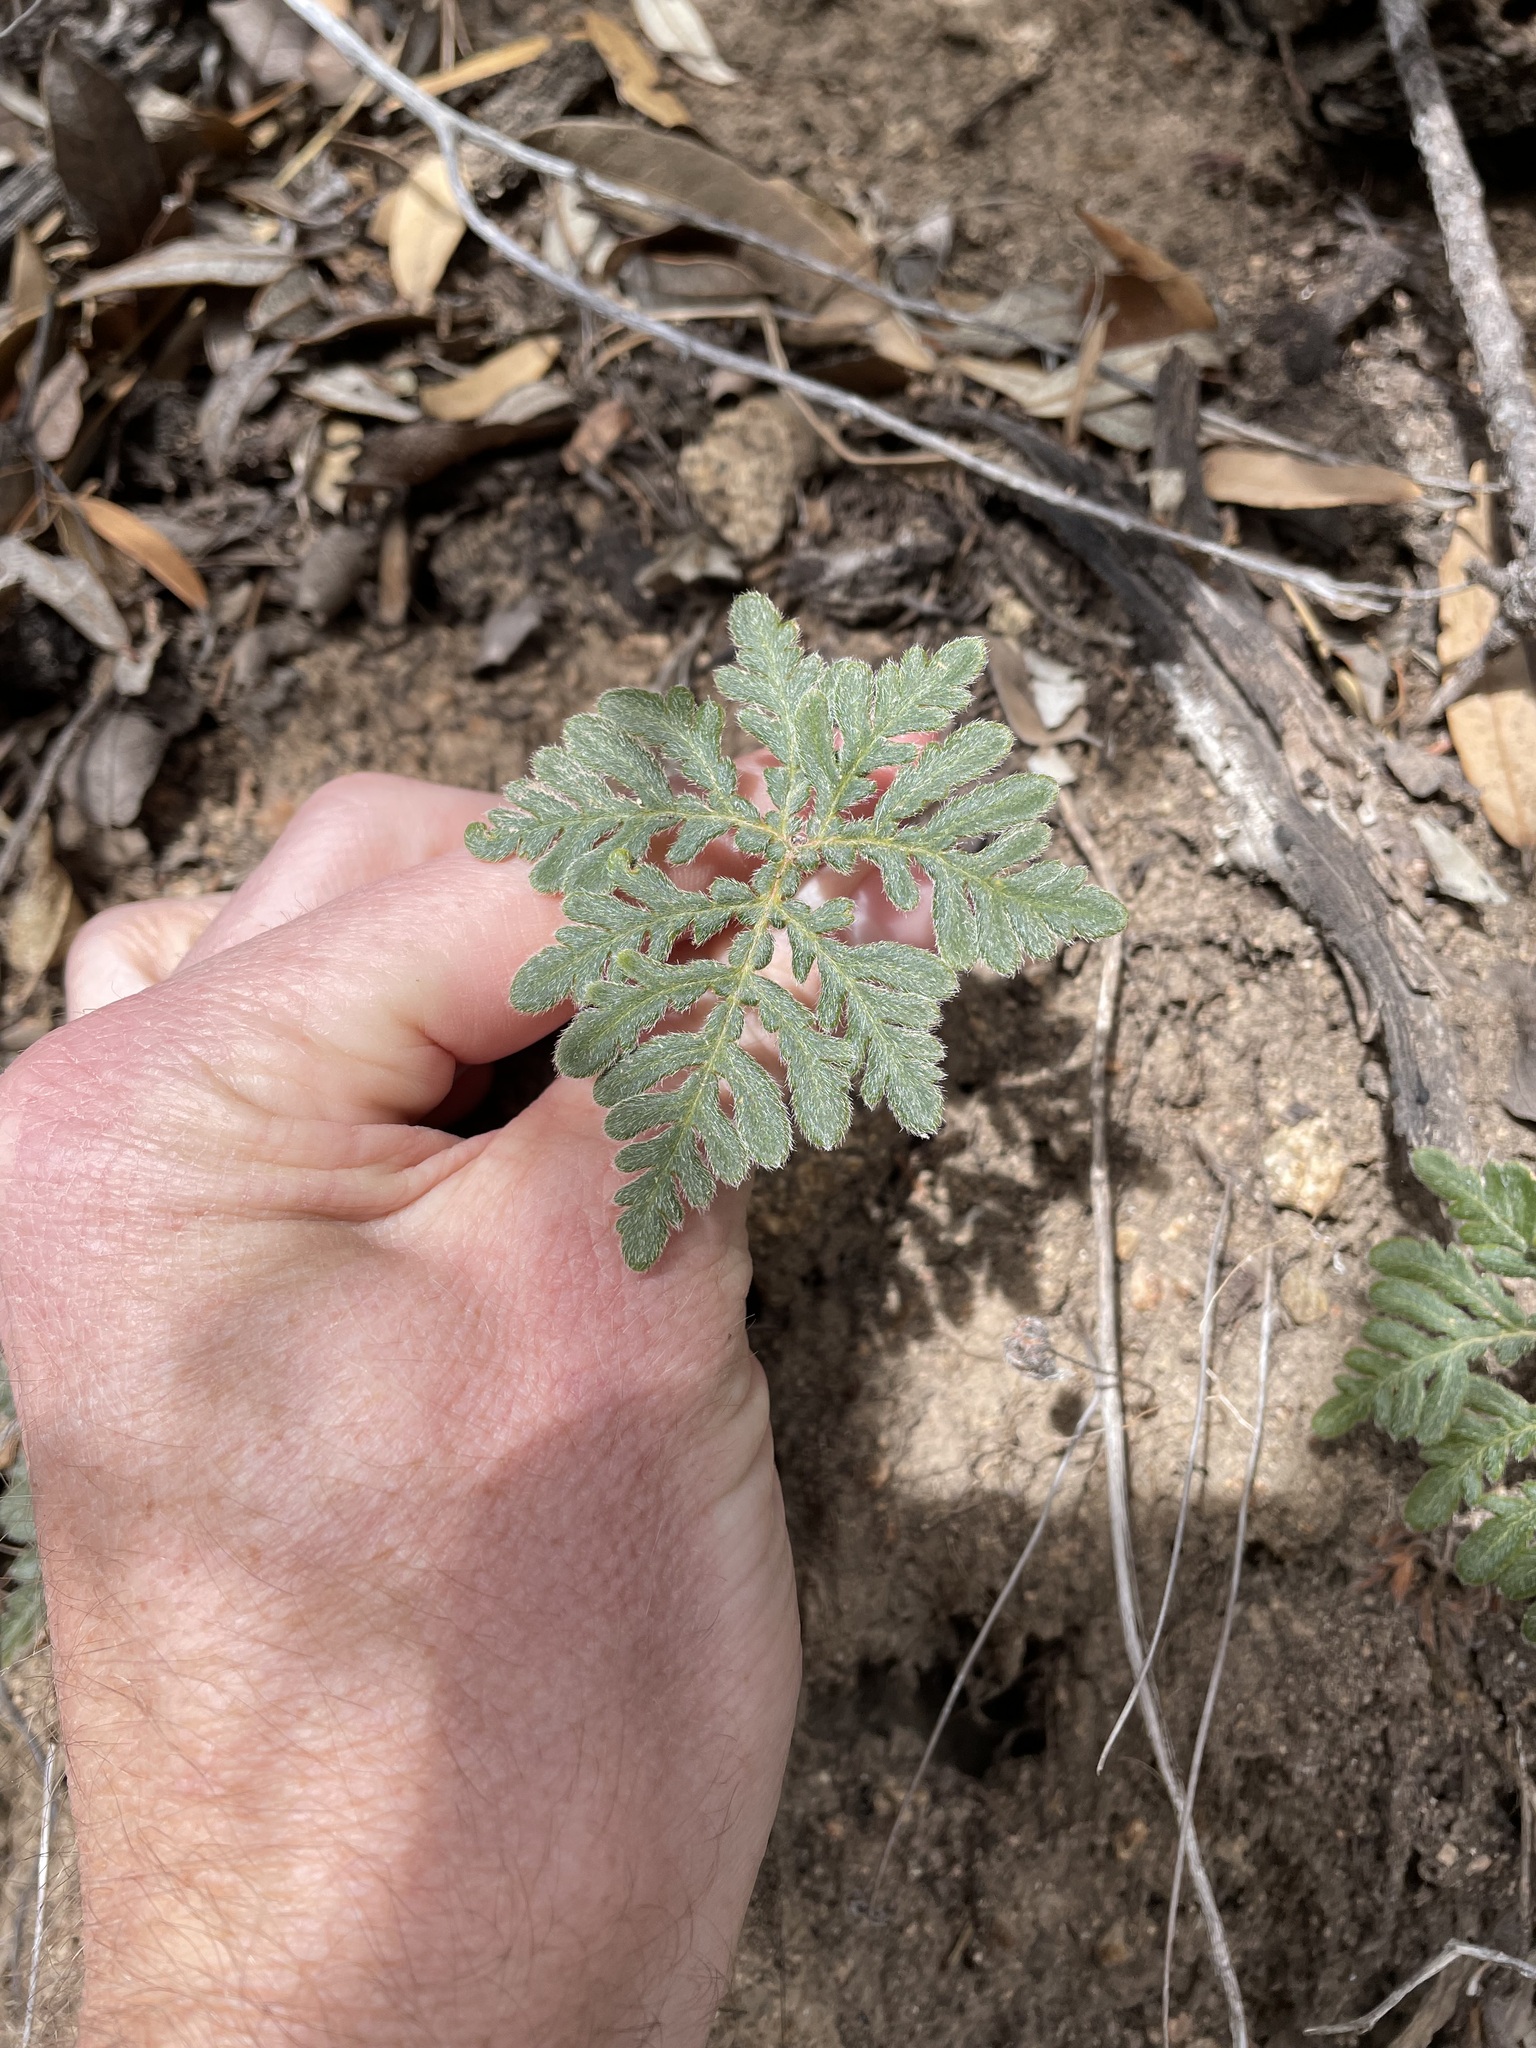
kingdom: Plantae
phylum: Tracheophyta
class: Polypodiopsida
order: Polypodiales
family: Pteridaceae
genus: Bommeria
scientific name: Bommeria hispida
